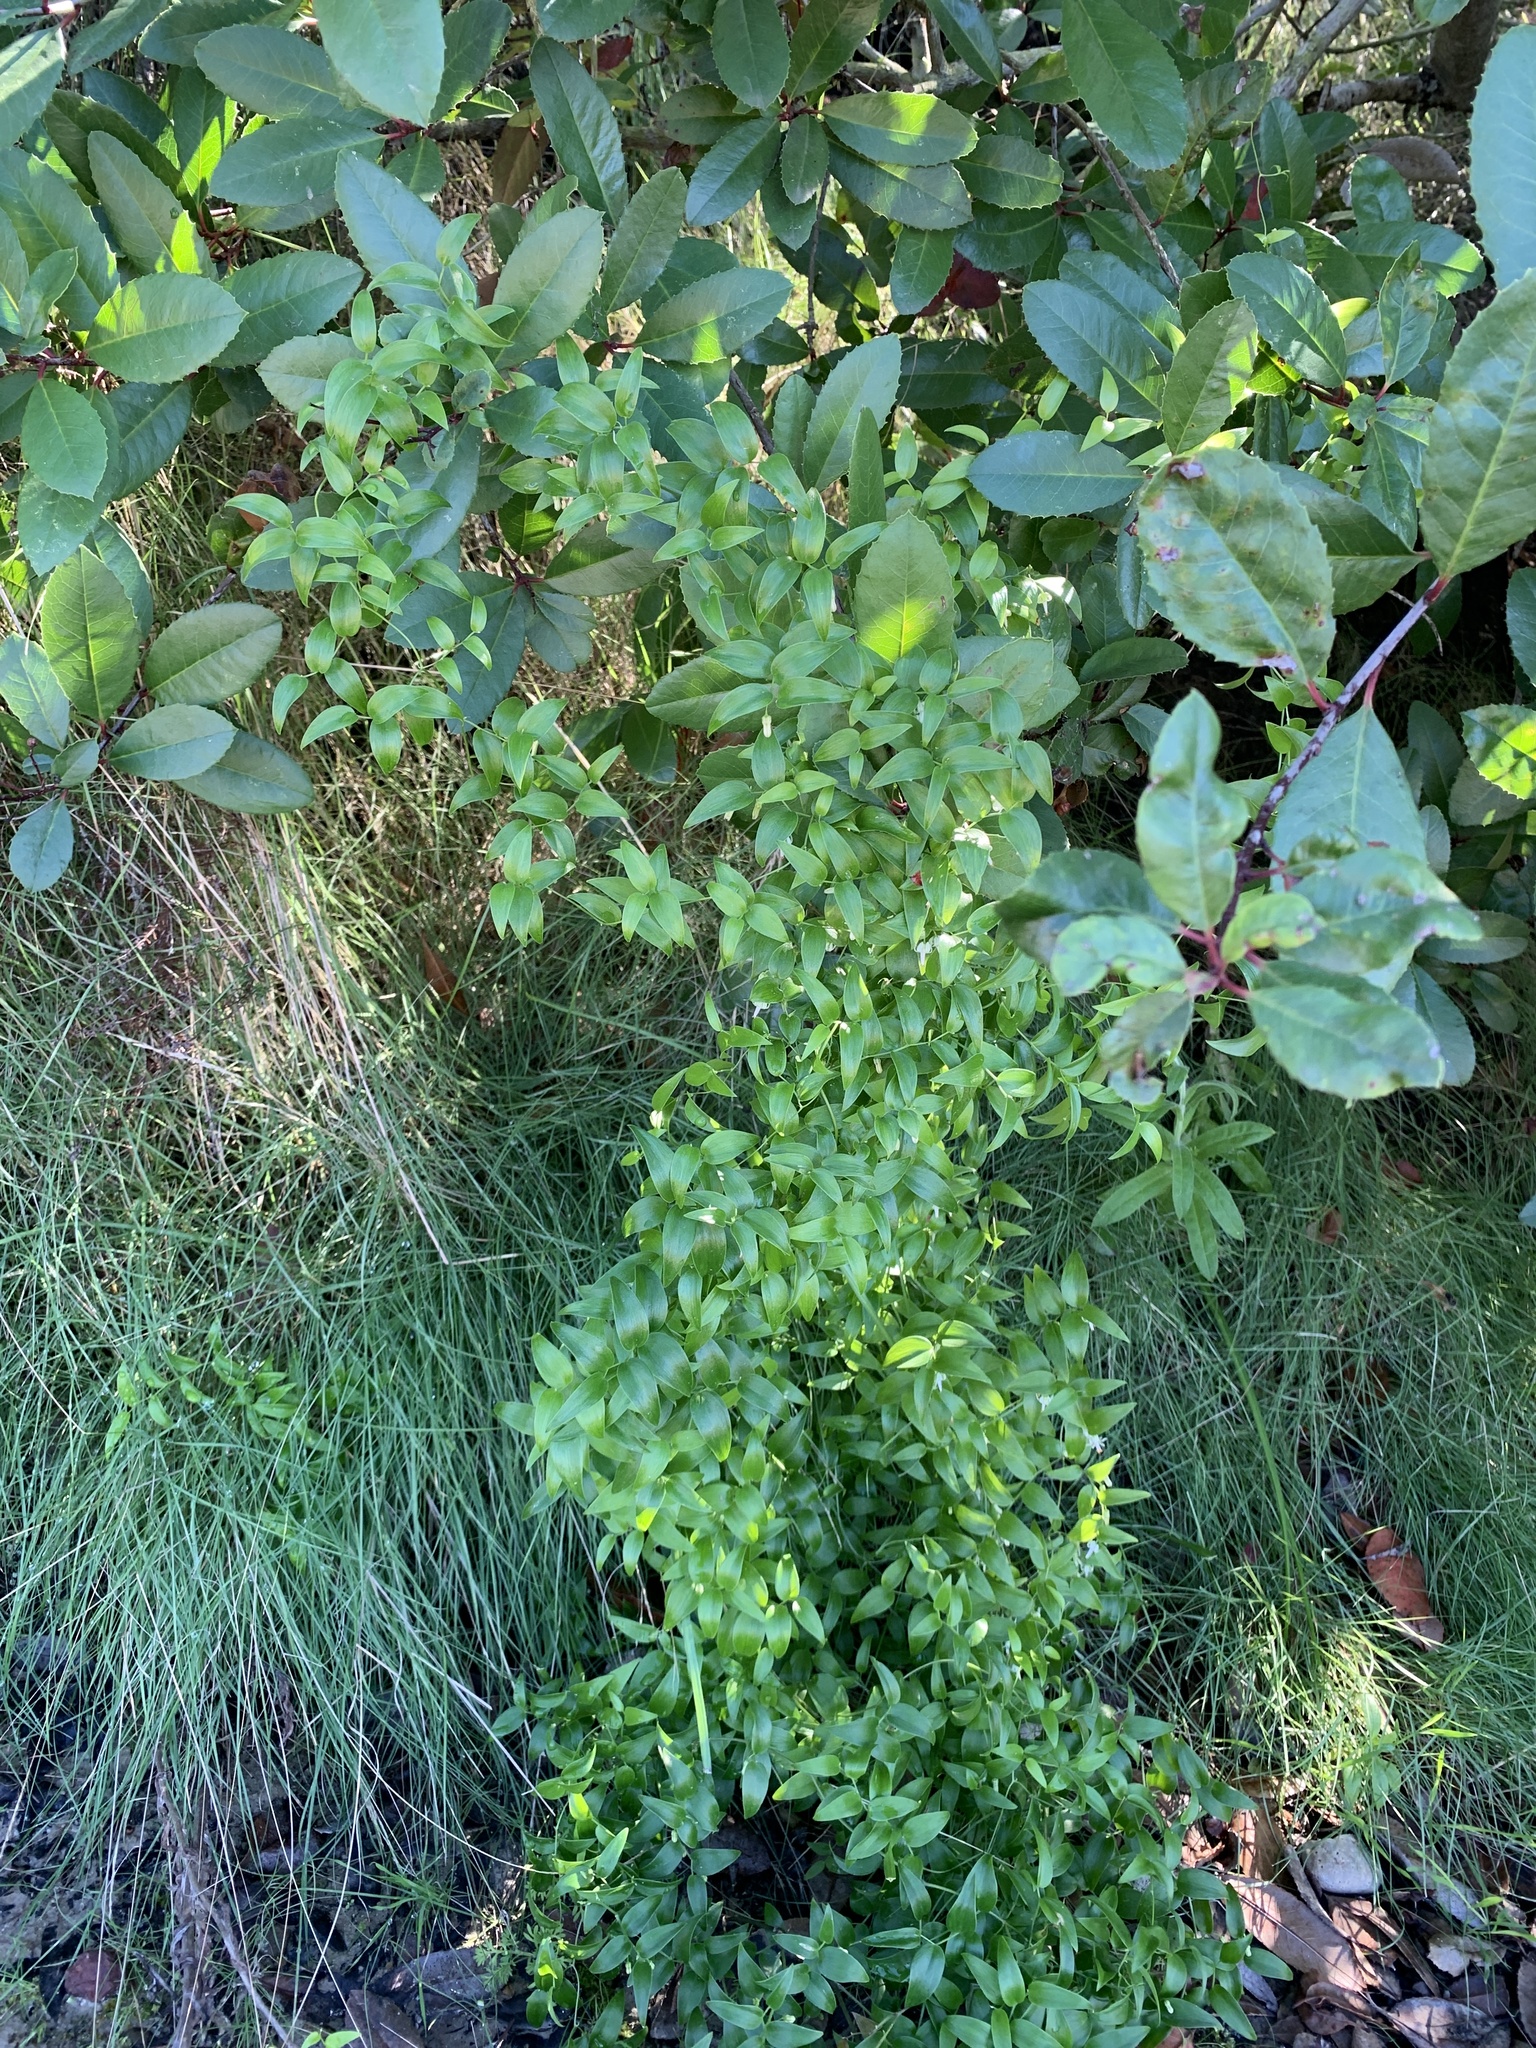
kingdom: Plantae
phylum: Tracheophyta
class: Liliopsida
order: Asparagales
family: Asparagaceae
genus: Asparagus
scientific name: Asparagus asparagoides
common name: African asparagus fern
